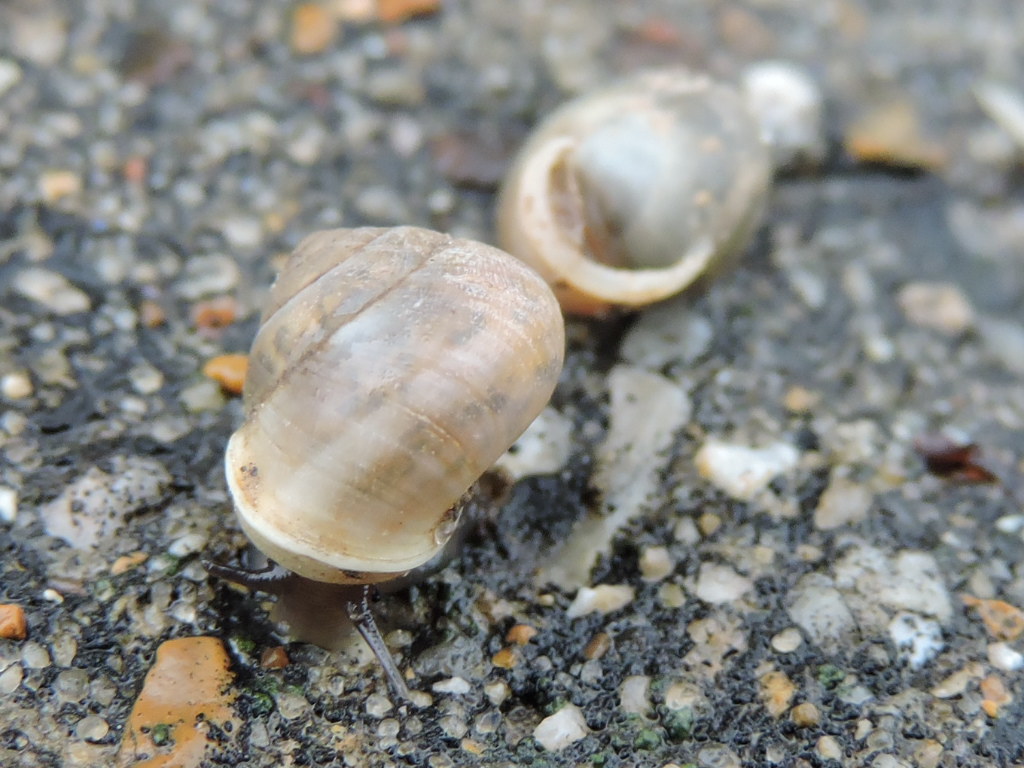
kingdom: Animalia
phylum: Mollusca
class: Gastropoda
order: Cycloneritida
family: Helicinidae
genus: Helicina
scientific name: Helicina orbiculata
